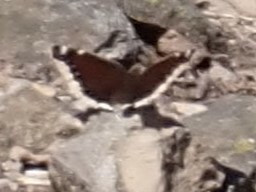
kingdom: Animalia
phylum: Arthropoda
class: Insecta
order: Lepidoptera
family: Nymphalidae
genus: Nymphalis
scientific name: Nymphalis antiopa
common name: Camberwell beauty
